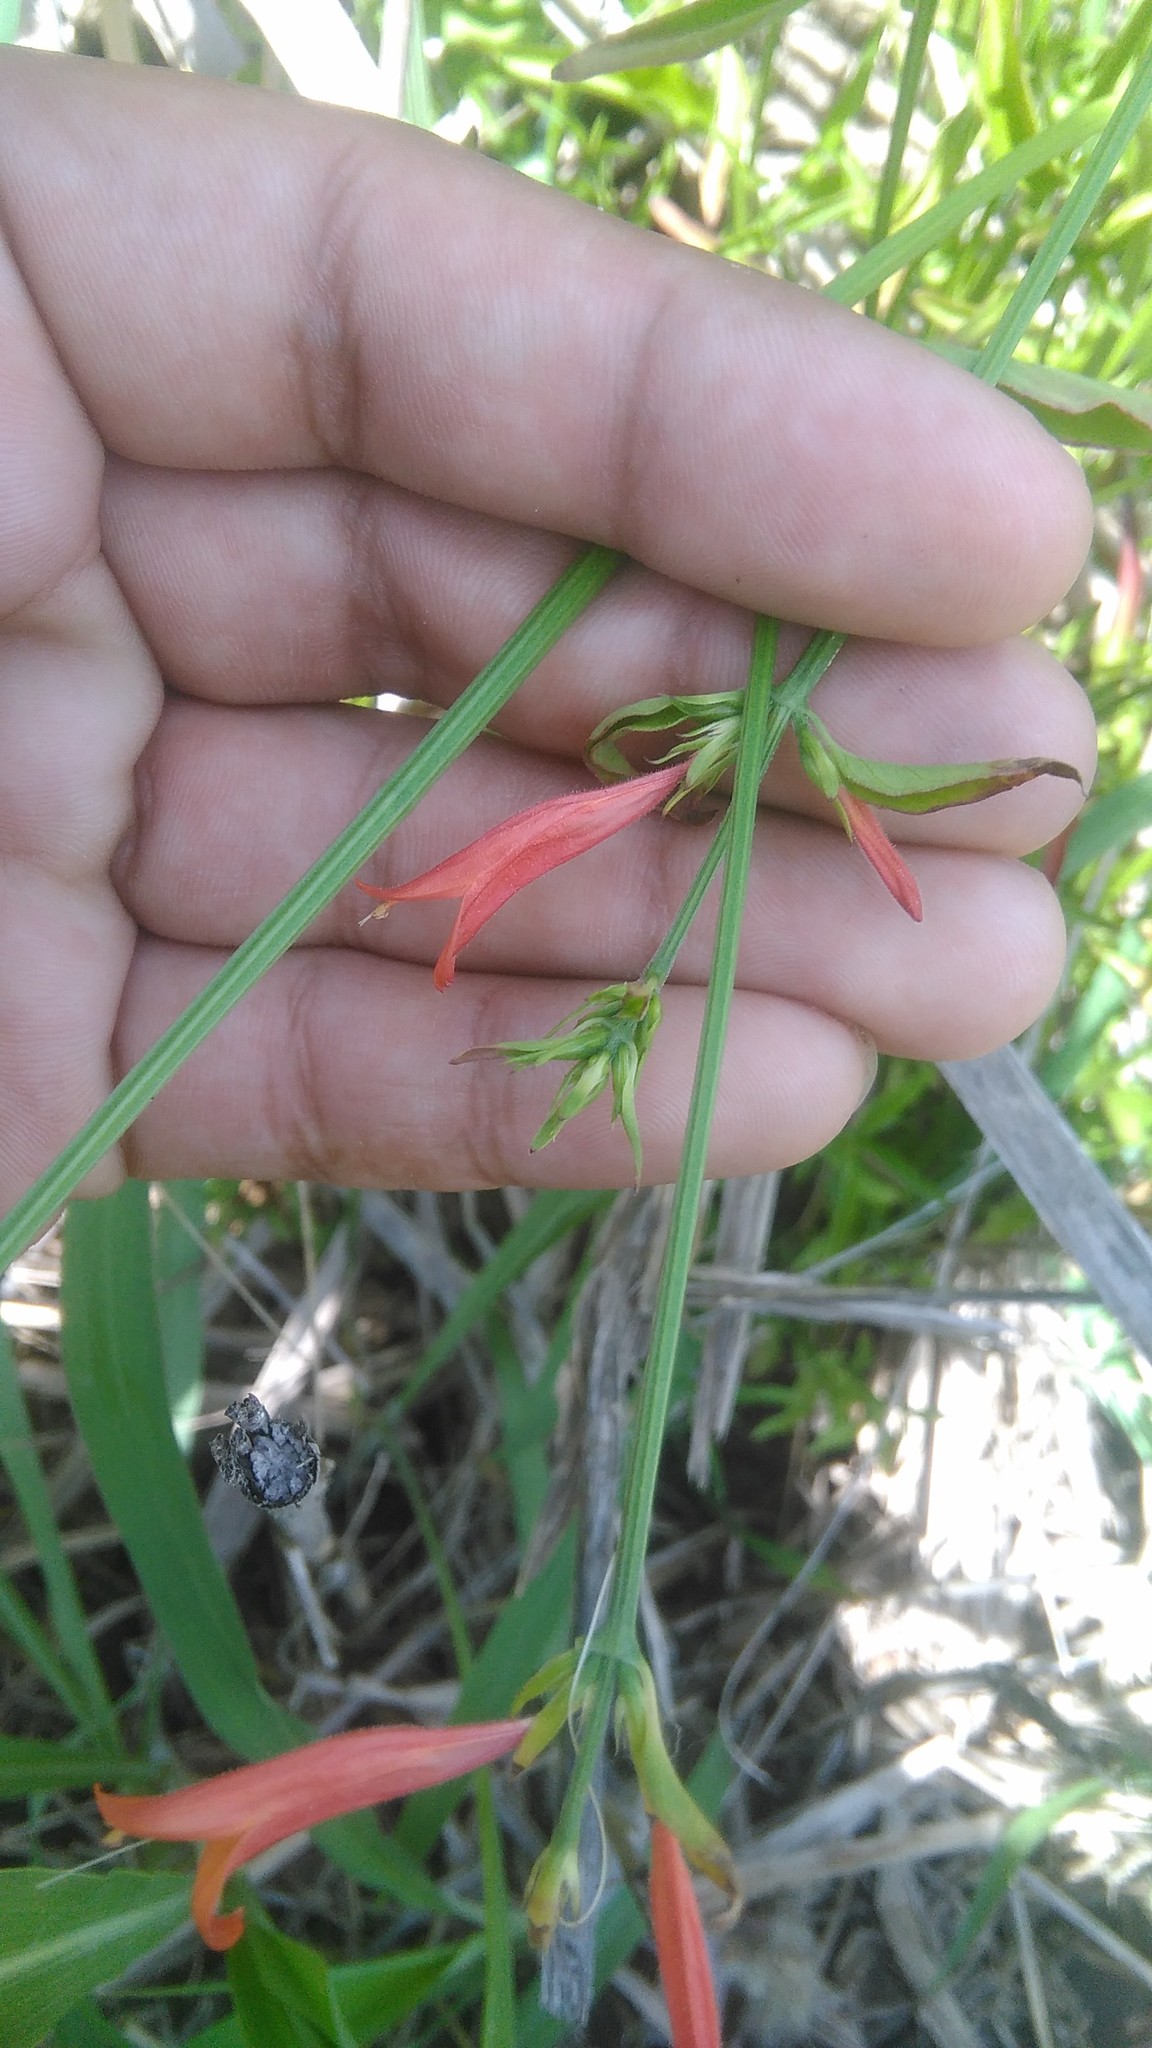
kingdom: Plantae
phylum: Tracheophyta
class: Magnoliopsida
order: Lamiales
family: Acanthaceae
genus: Dicliptera
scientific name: Dicliptera squarrosa
